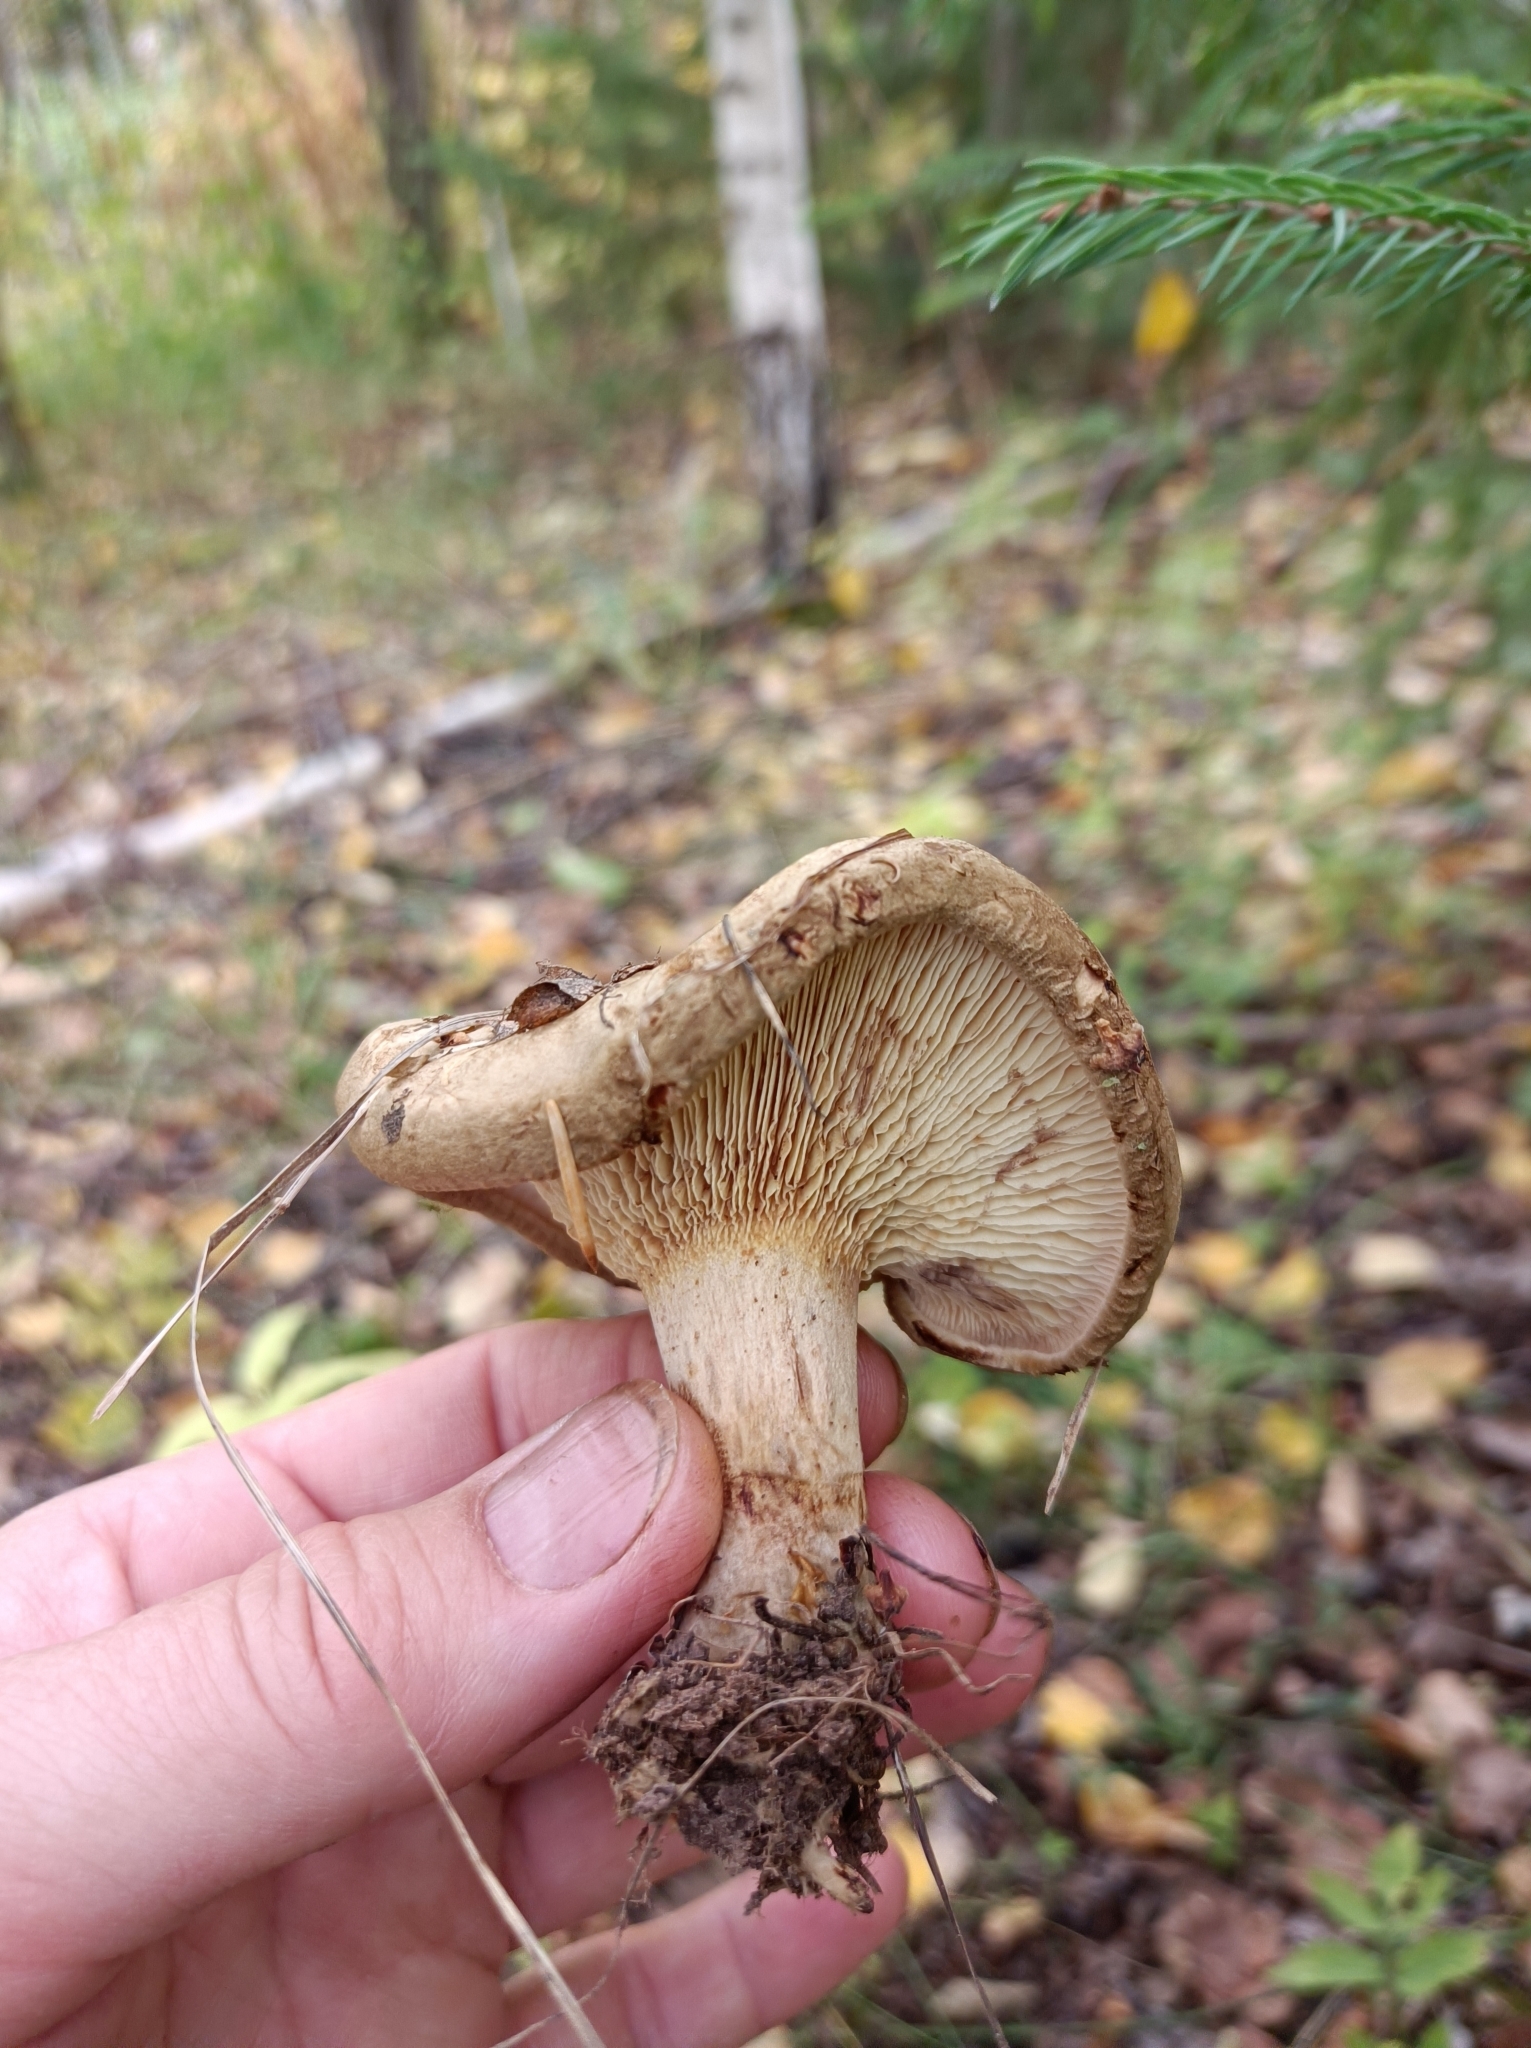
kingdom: Fungi
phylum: Basidiomycota
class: Agaricomycetes
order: Boletales
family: Paxillaceae
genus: Paxillus
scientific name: Paxillus involutus
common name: Brown roll rim
